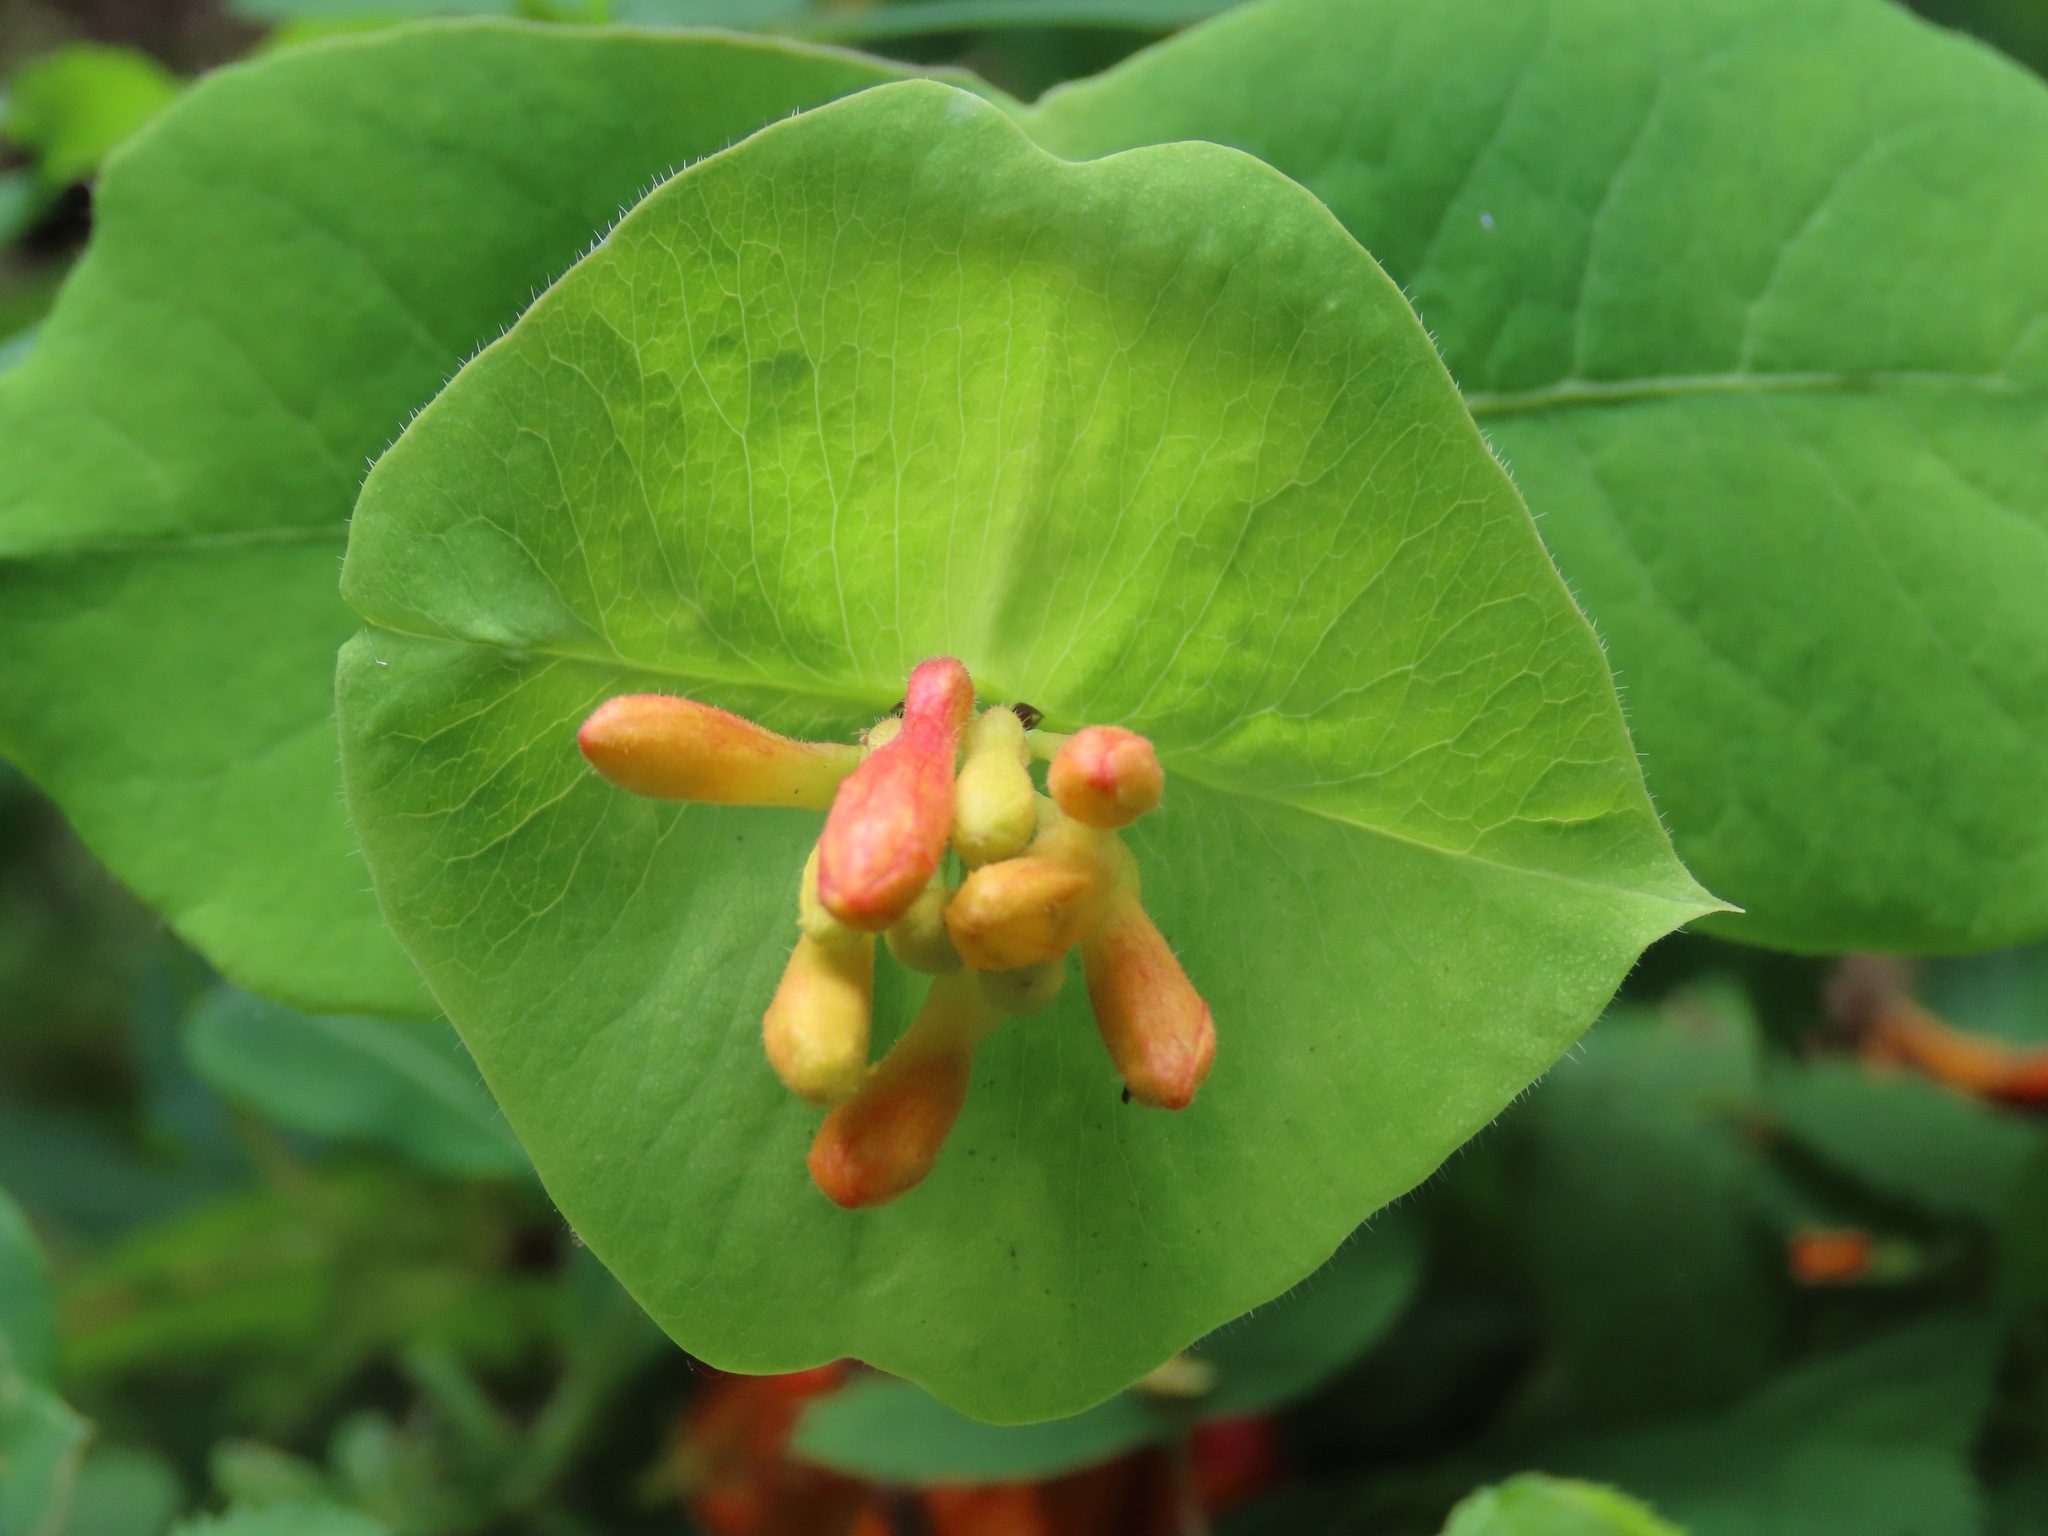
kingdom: Plantae
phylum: Tracheophyta
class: Magnoliopsida
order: Dipsacales
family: Caprifoliaceae
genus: Lonicera
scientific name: Lonicera ciliosa
